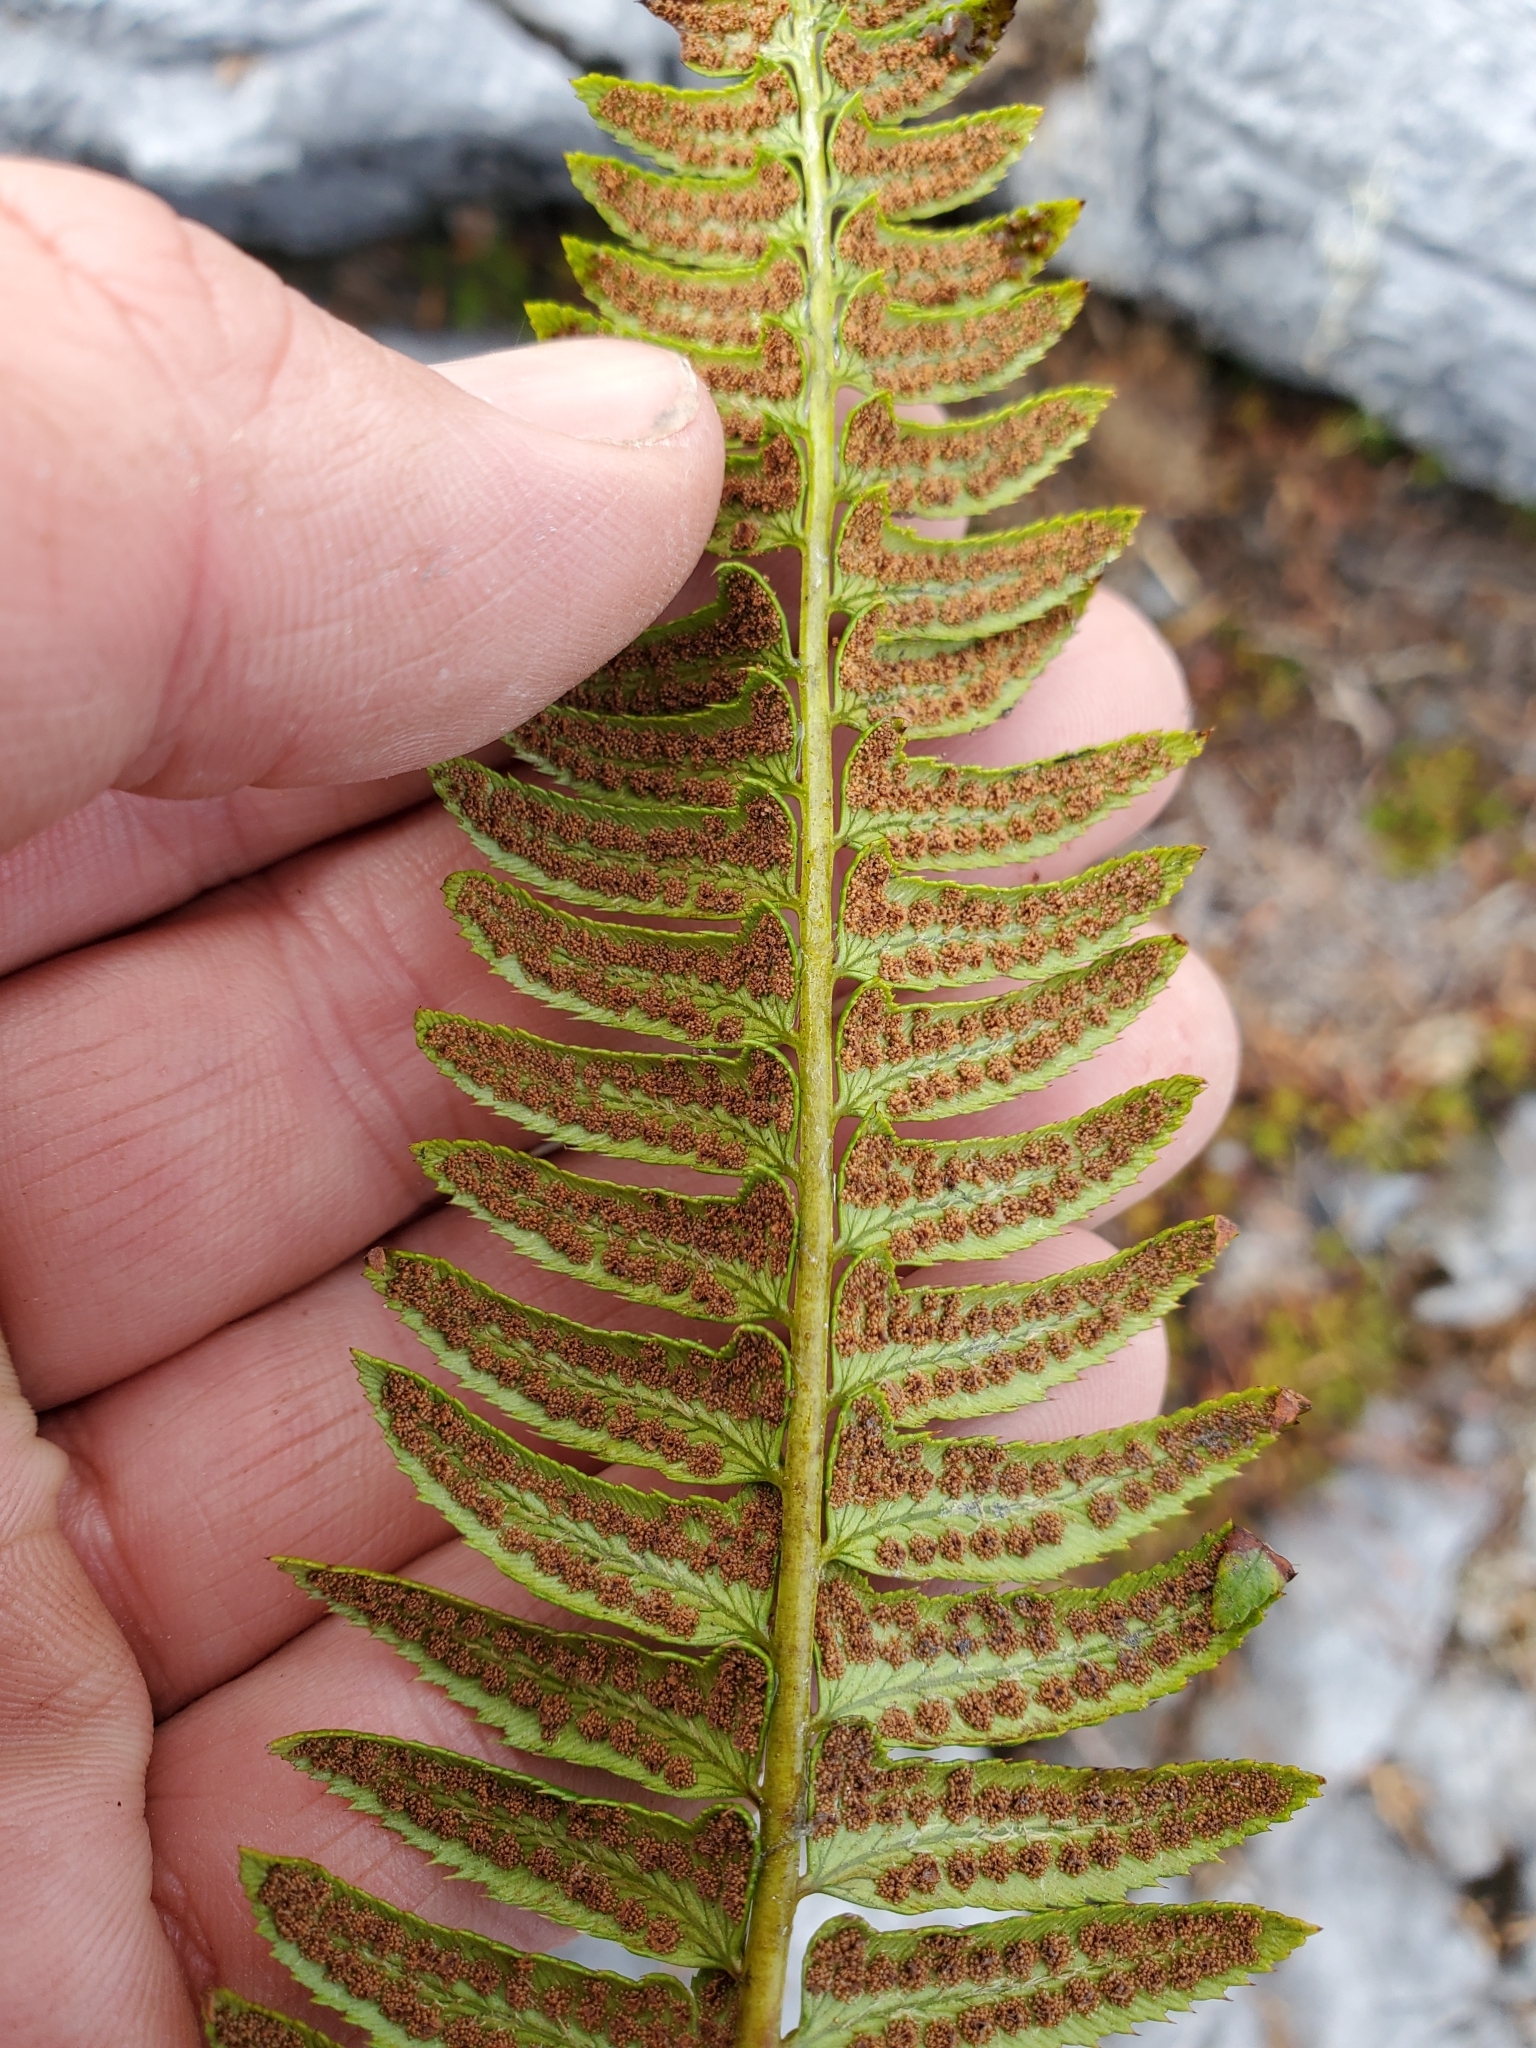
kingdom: Plantae
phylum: Tracheophyta
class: Polypodiopsida
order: Polypodiales
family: Dryopteridaceae
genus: Polystichum
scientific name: Polystichum lonchitis
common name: Holly fern
